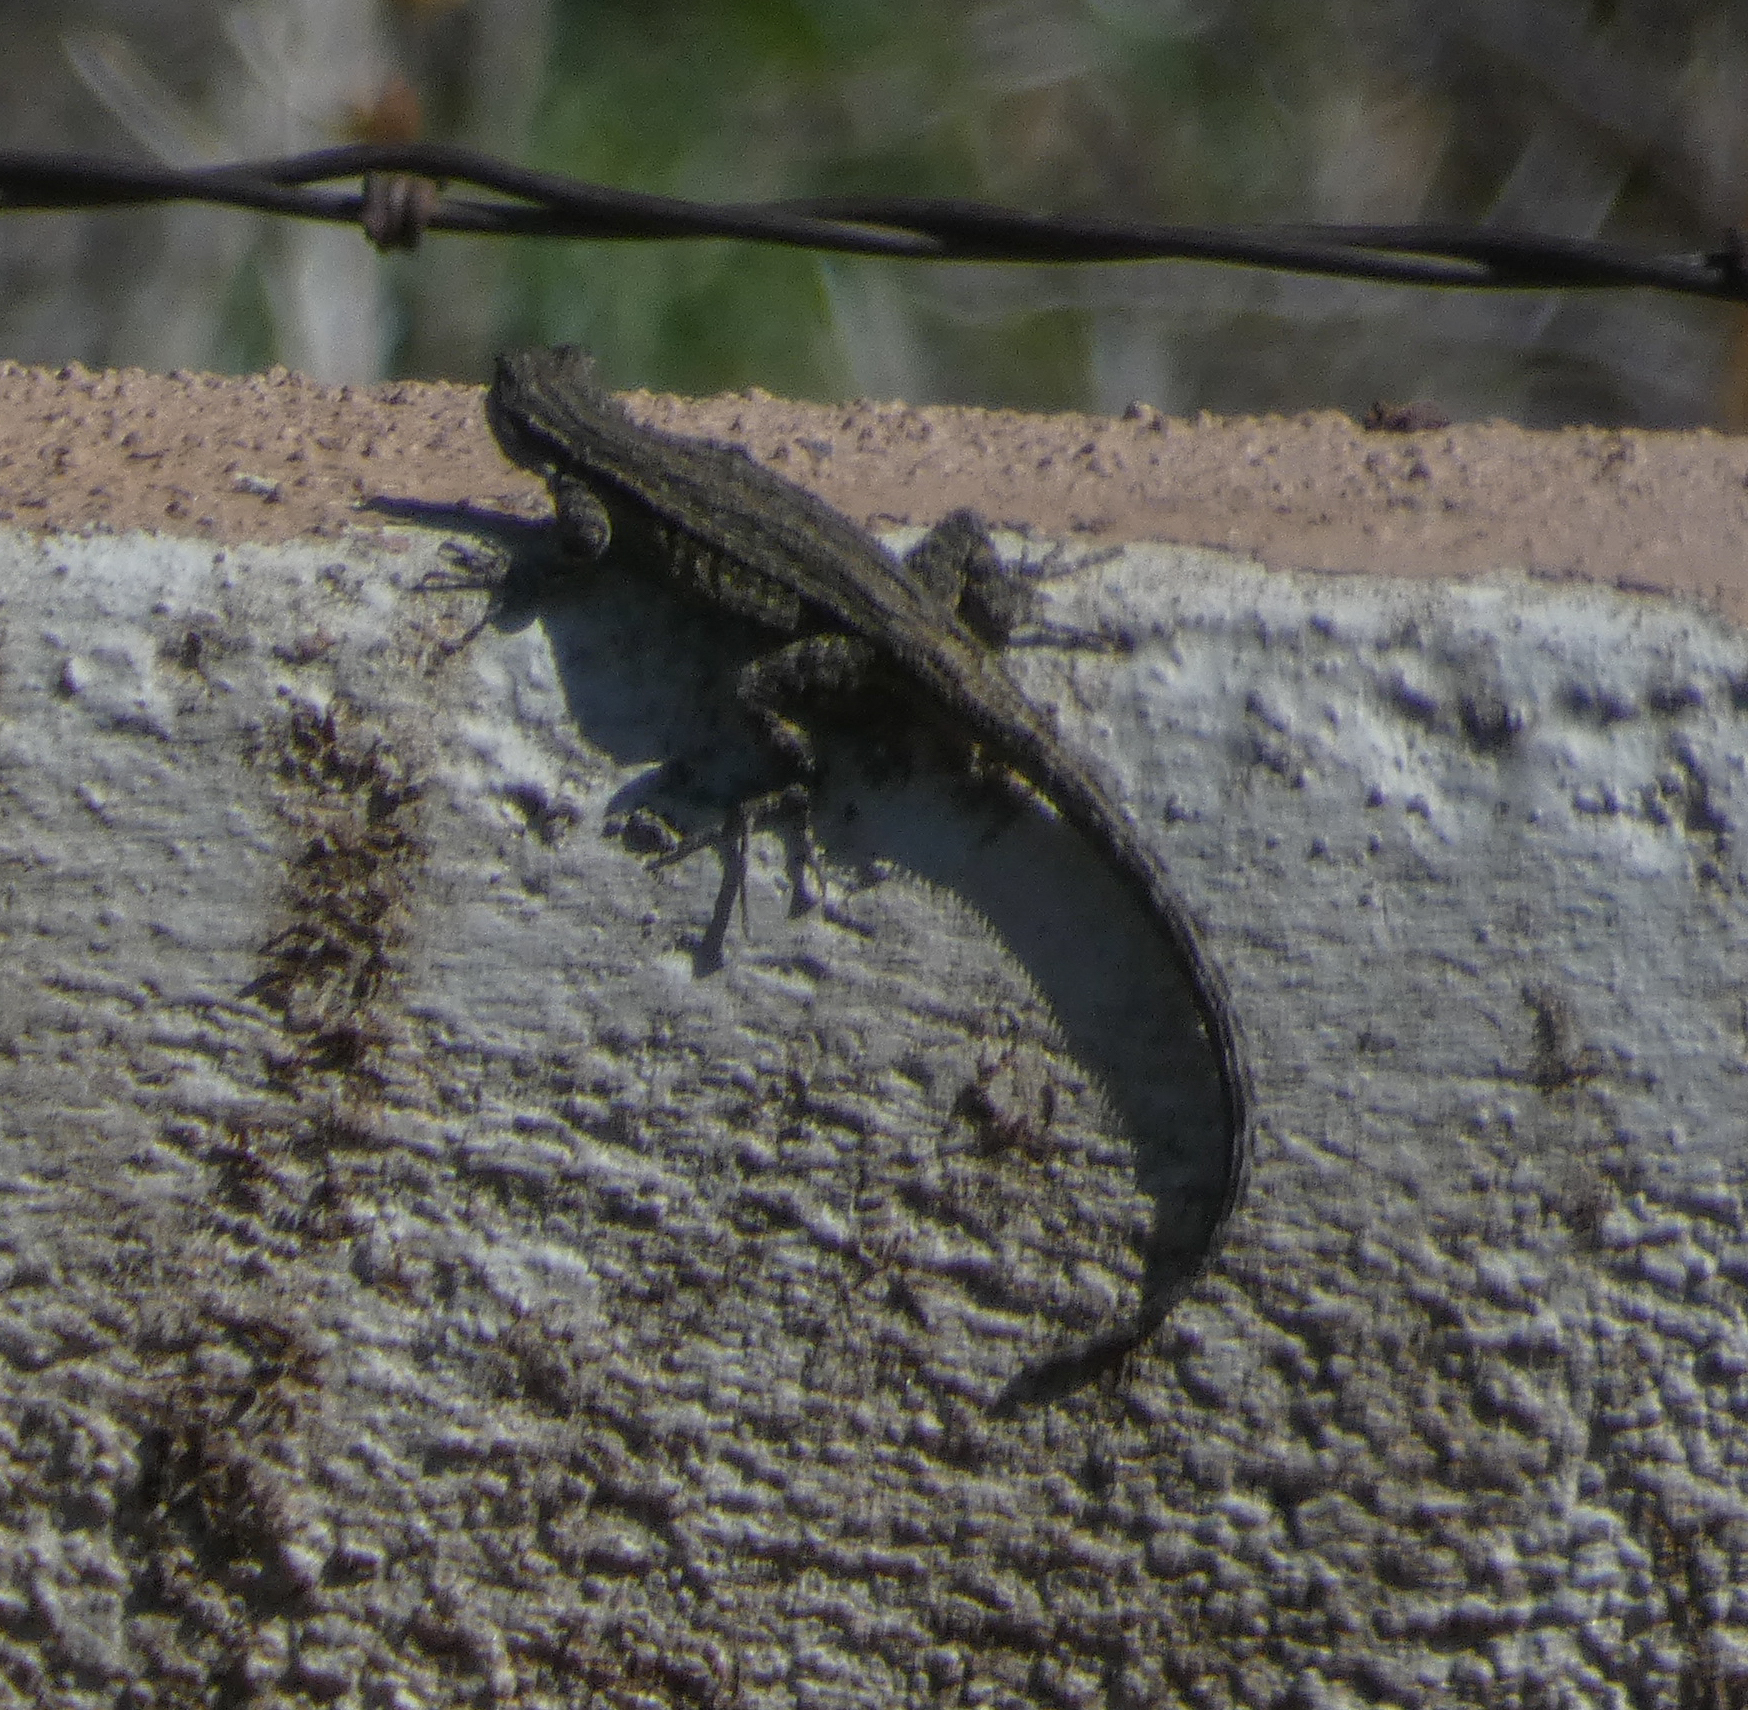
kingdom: Animalia
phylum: Chordata
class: Squamata
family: Phrynosomatidae
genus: Urosaurus
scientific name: Urosaurus ornatus
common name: Ornate tree lizard
